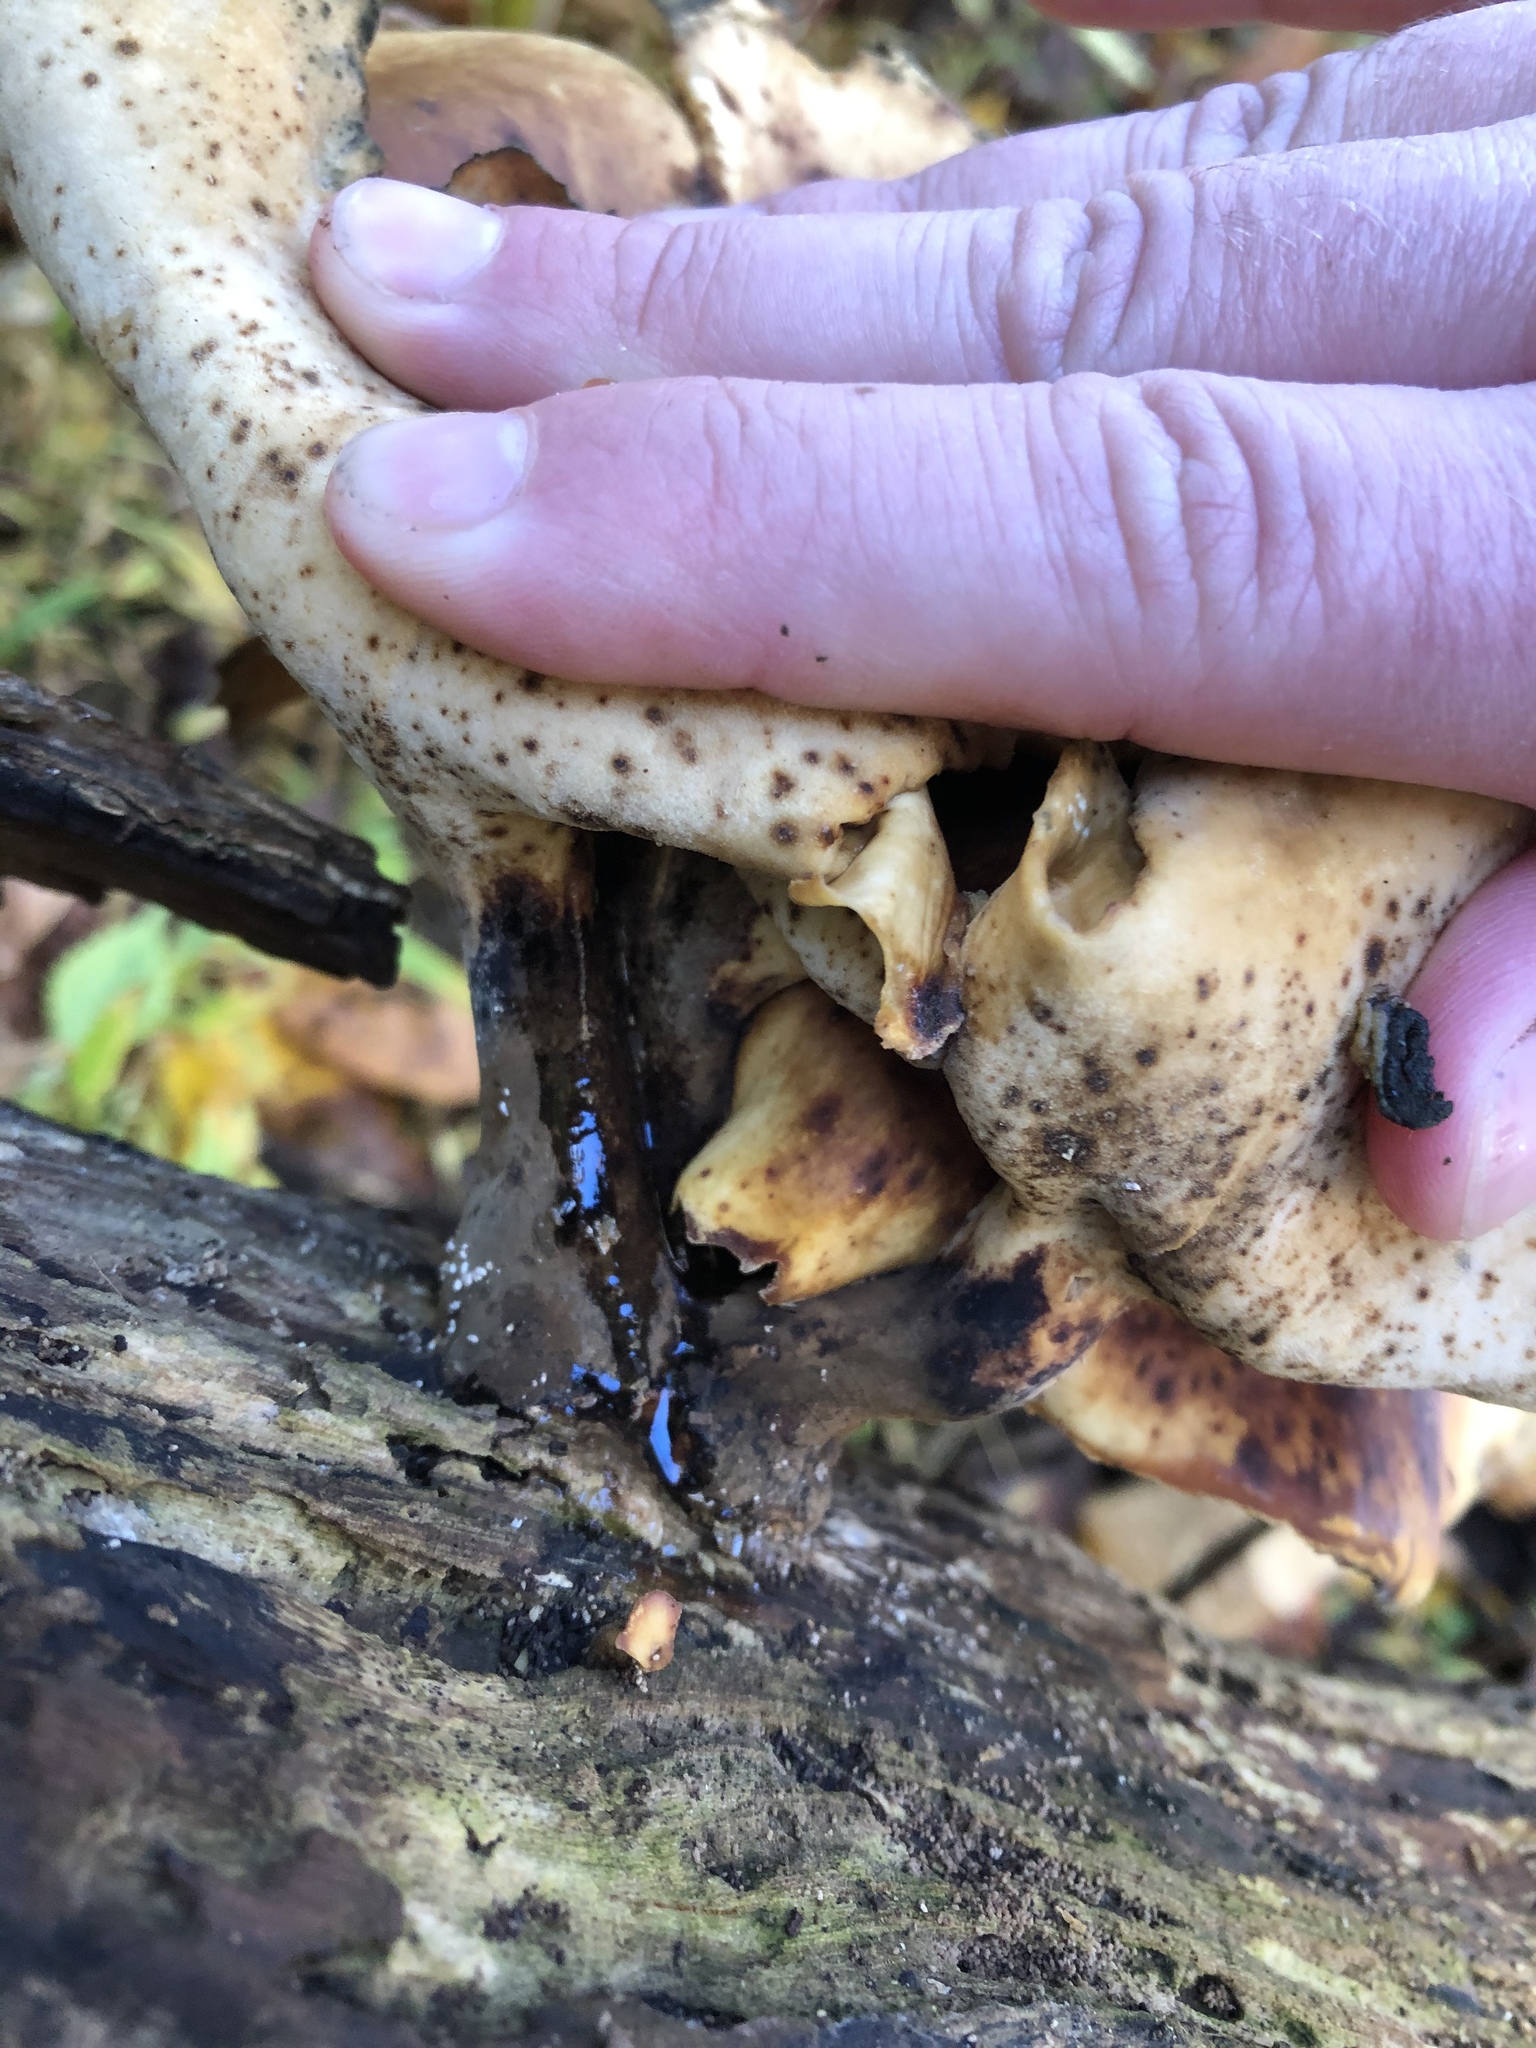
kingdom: Fungi
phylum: Basidiomycota
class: Agaricomycetes
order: Polyporales
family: Polyporaceae
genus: Picipes
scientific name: Picipes badius
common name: Bay polypore
